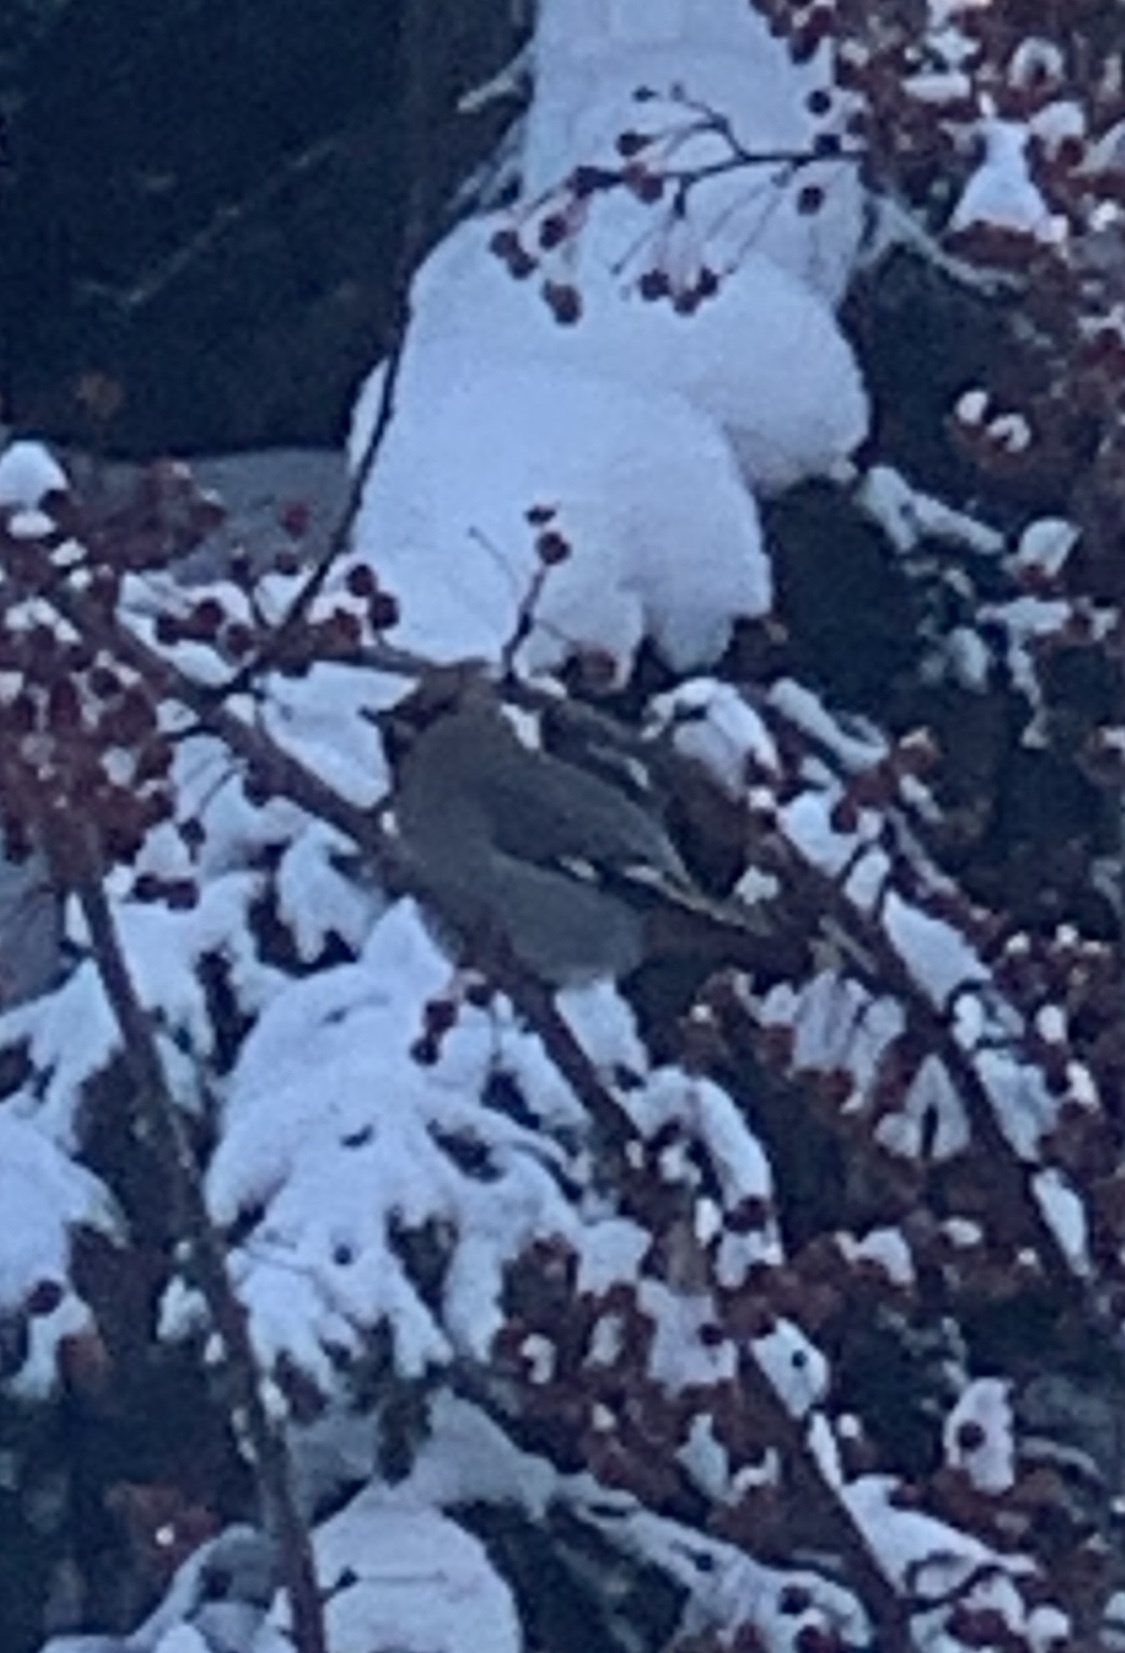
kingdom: Animalia
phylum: Chordata
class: Aves
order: Passeriformes
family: Bombycillidae
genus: Bombycilla
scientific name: Bombycilla garrulus
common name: Bohemian waxwing
